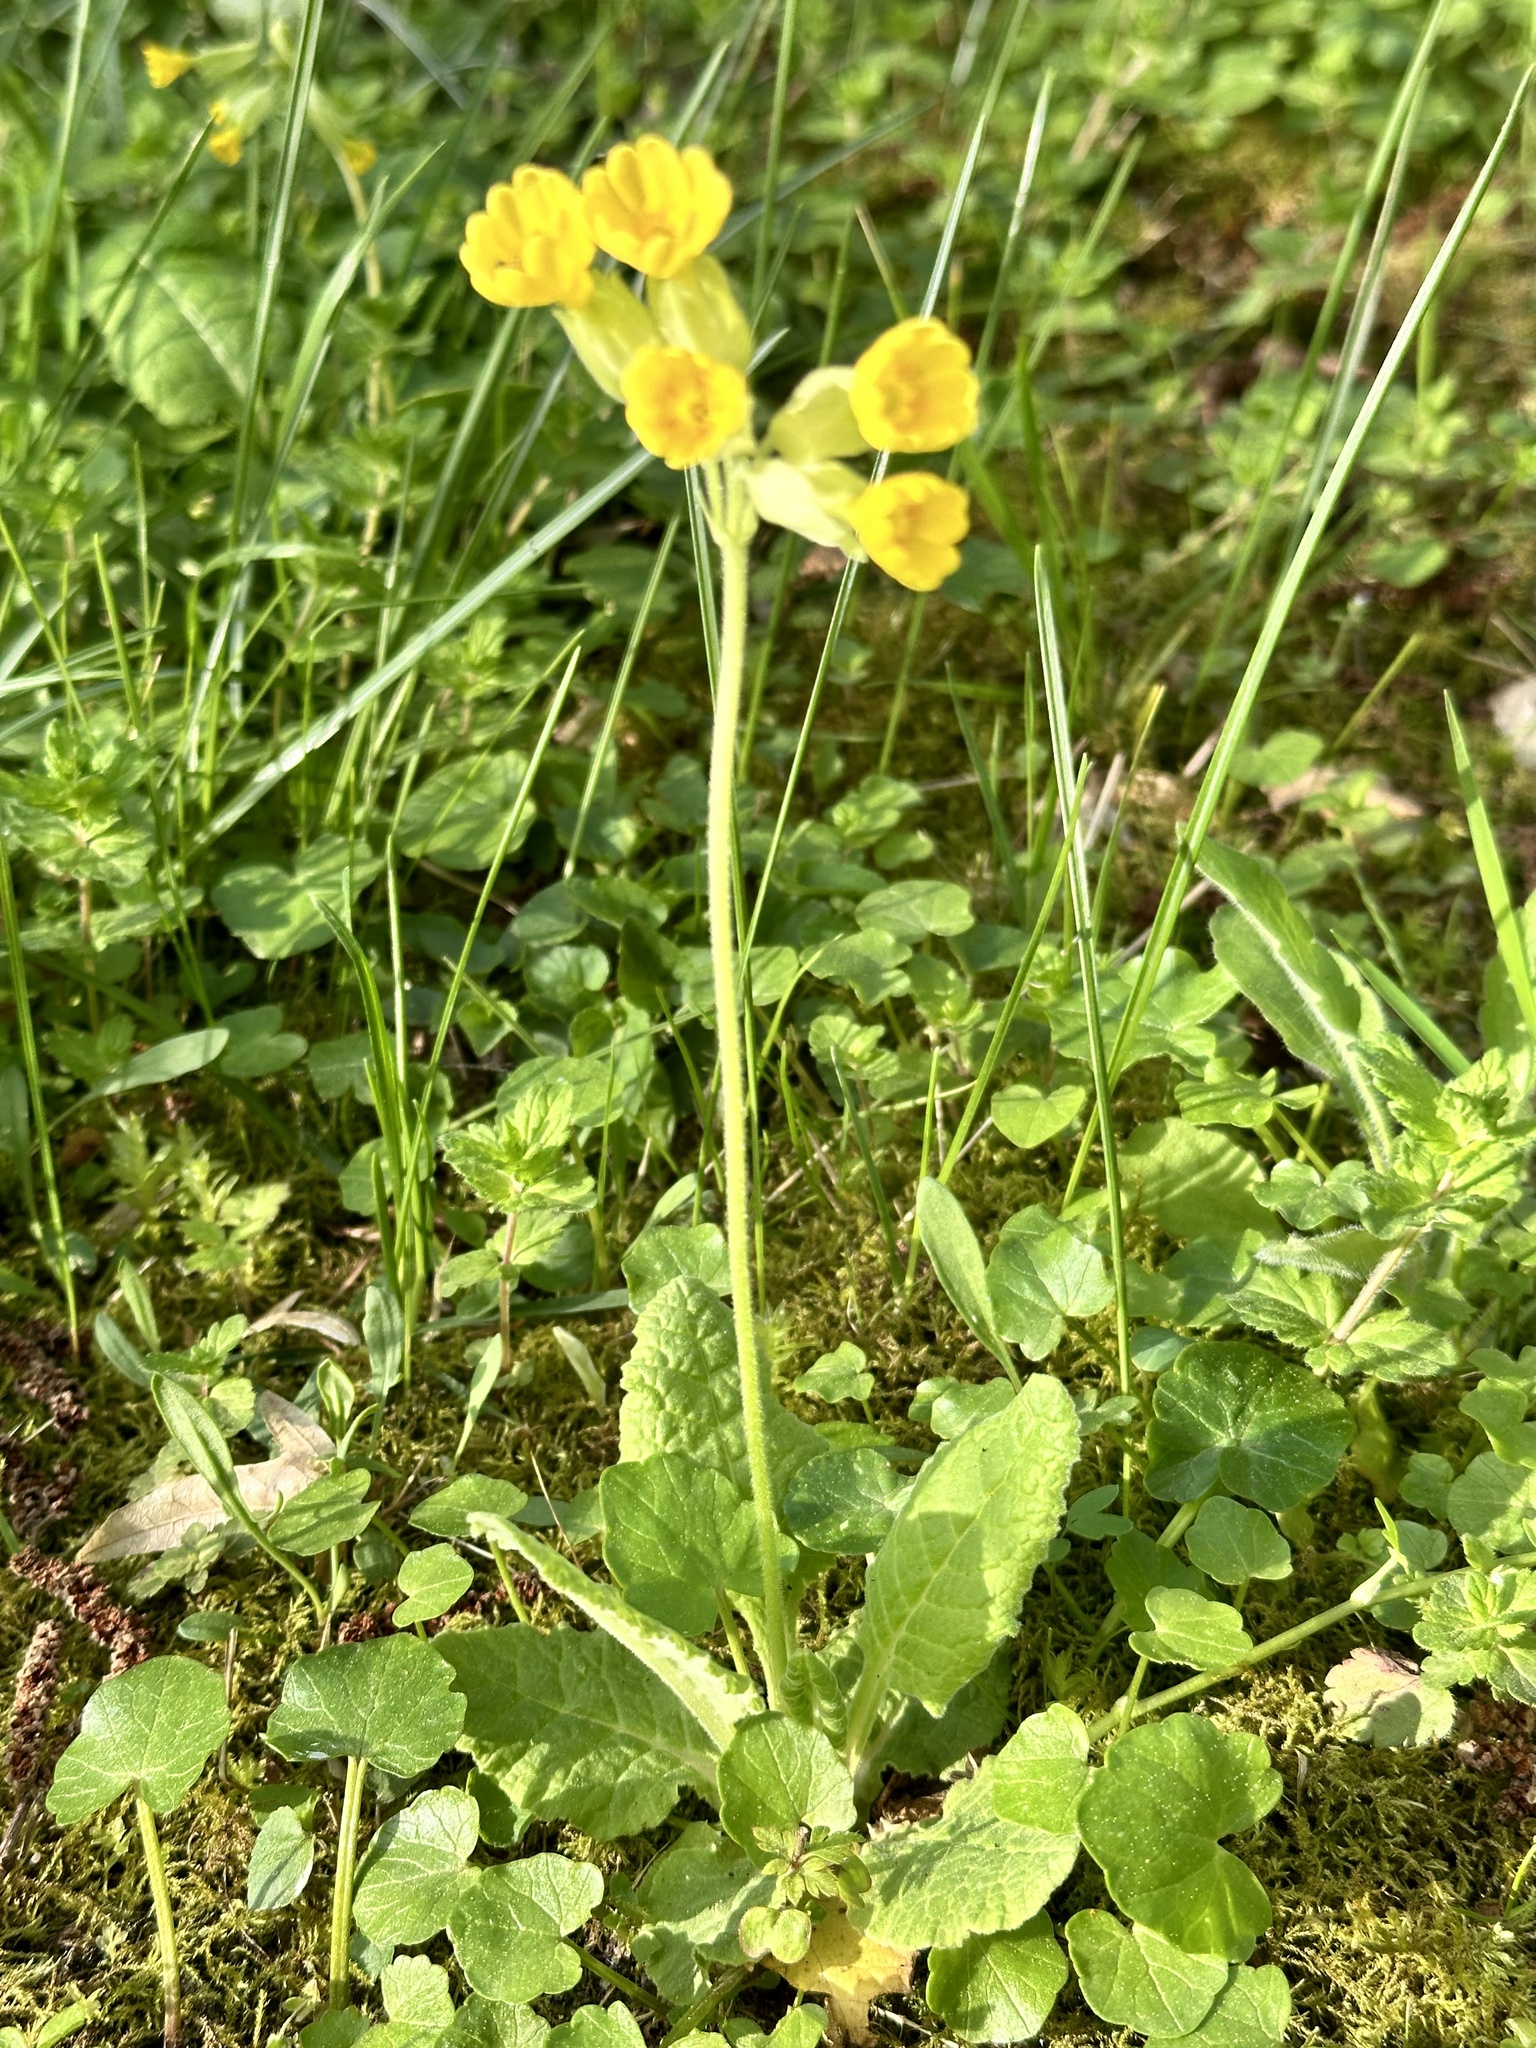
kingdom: Plantae
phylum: Tracheophyta
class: Magnoliopsida
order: Ericales
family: Primulaceae
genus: Primula
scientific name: Primula veris
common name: Cowslip
